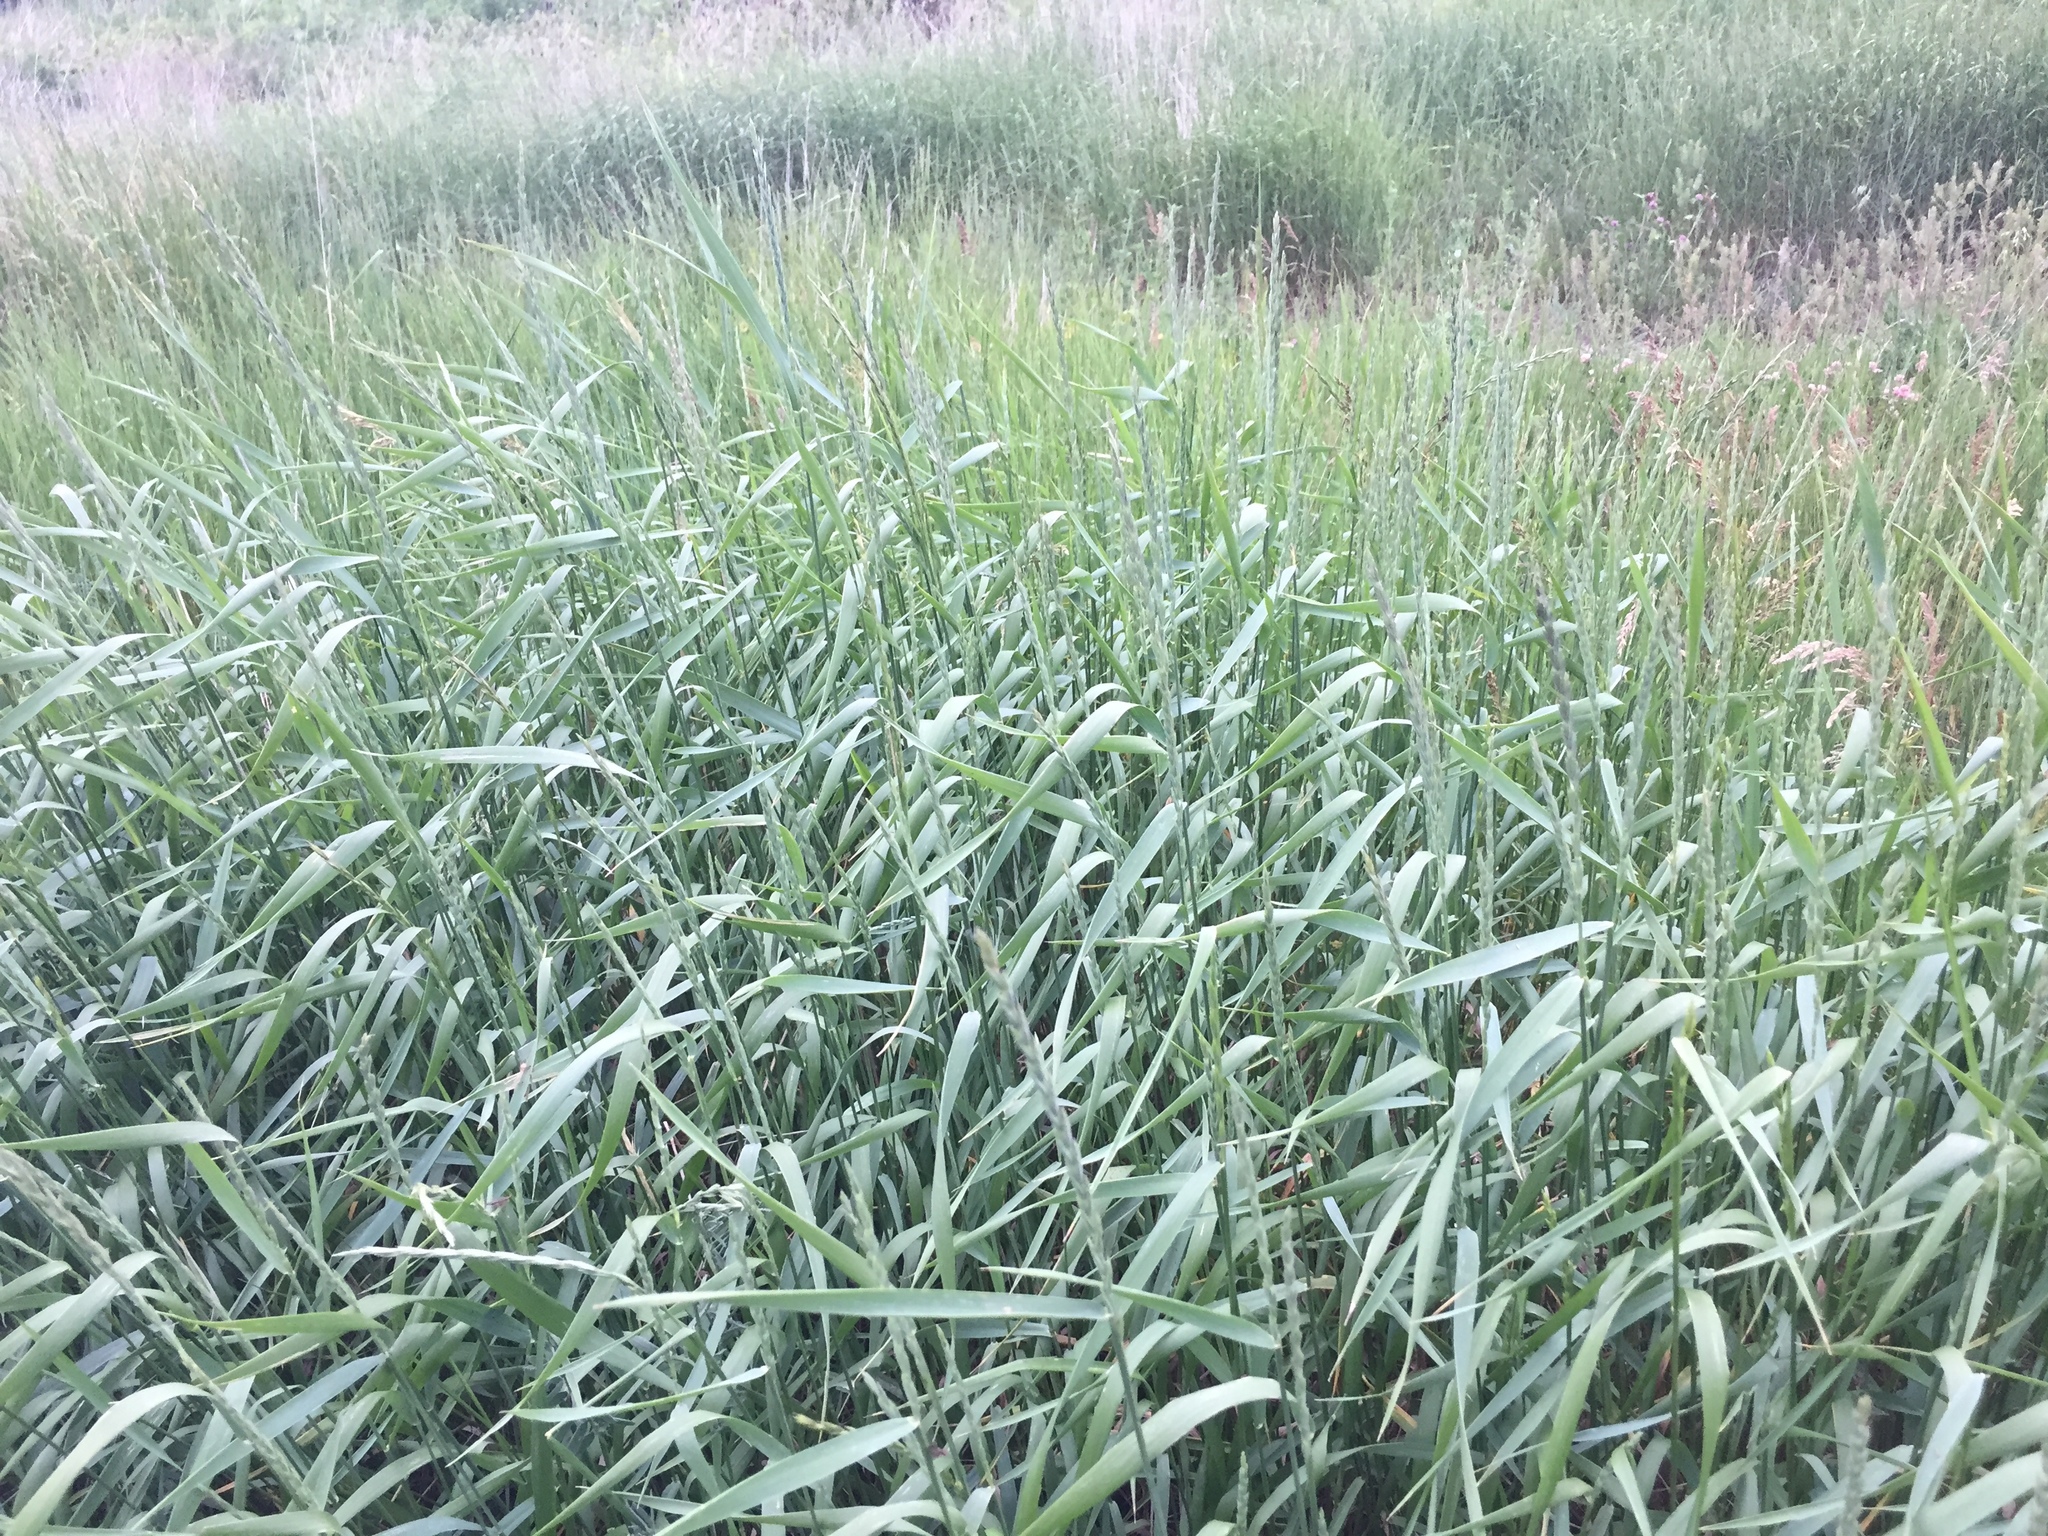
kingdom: Plantae
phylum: Tracheophyta
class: Liliopsida
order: Poales
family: Poaceae
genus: Elymus
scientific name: Elymus repens
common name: Quackgrass
